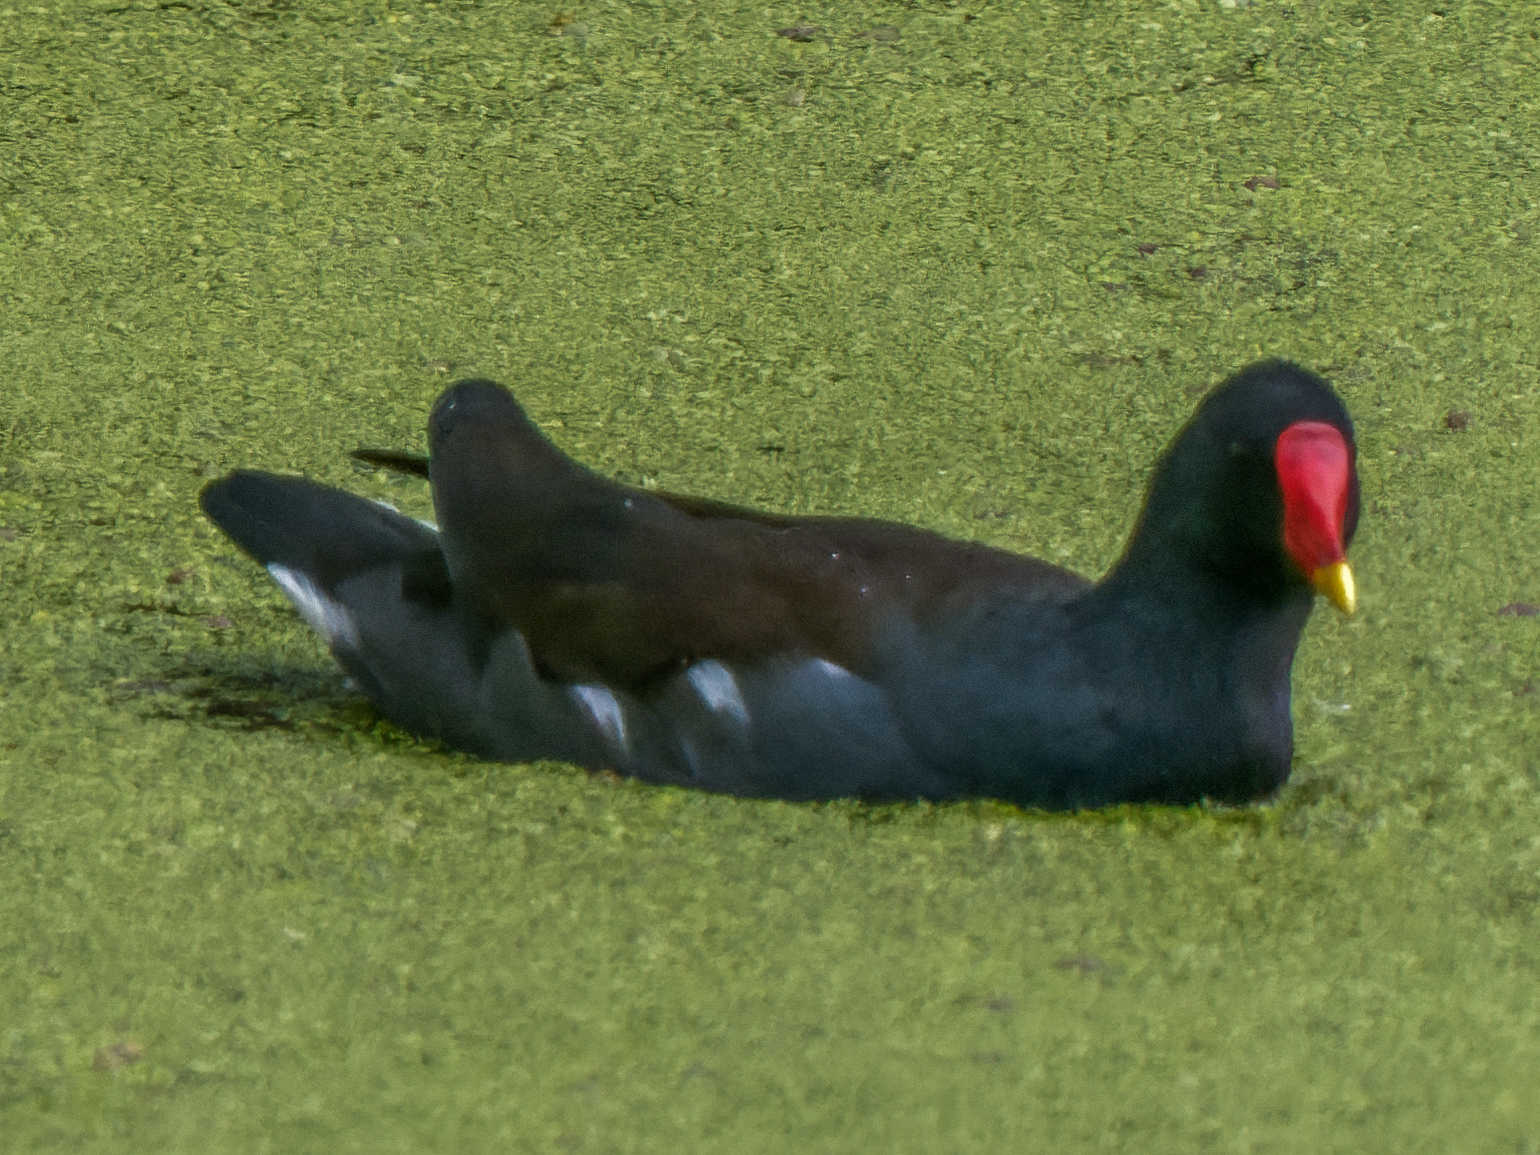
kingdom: Animalia
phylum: Chordata
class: Aves
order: Gruiformes
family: Rallidae
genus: Gallinula
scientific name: Gallinula chloropus
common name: Common moorhen
